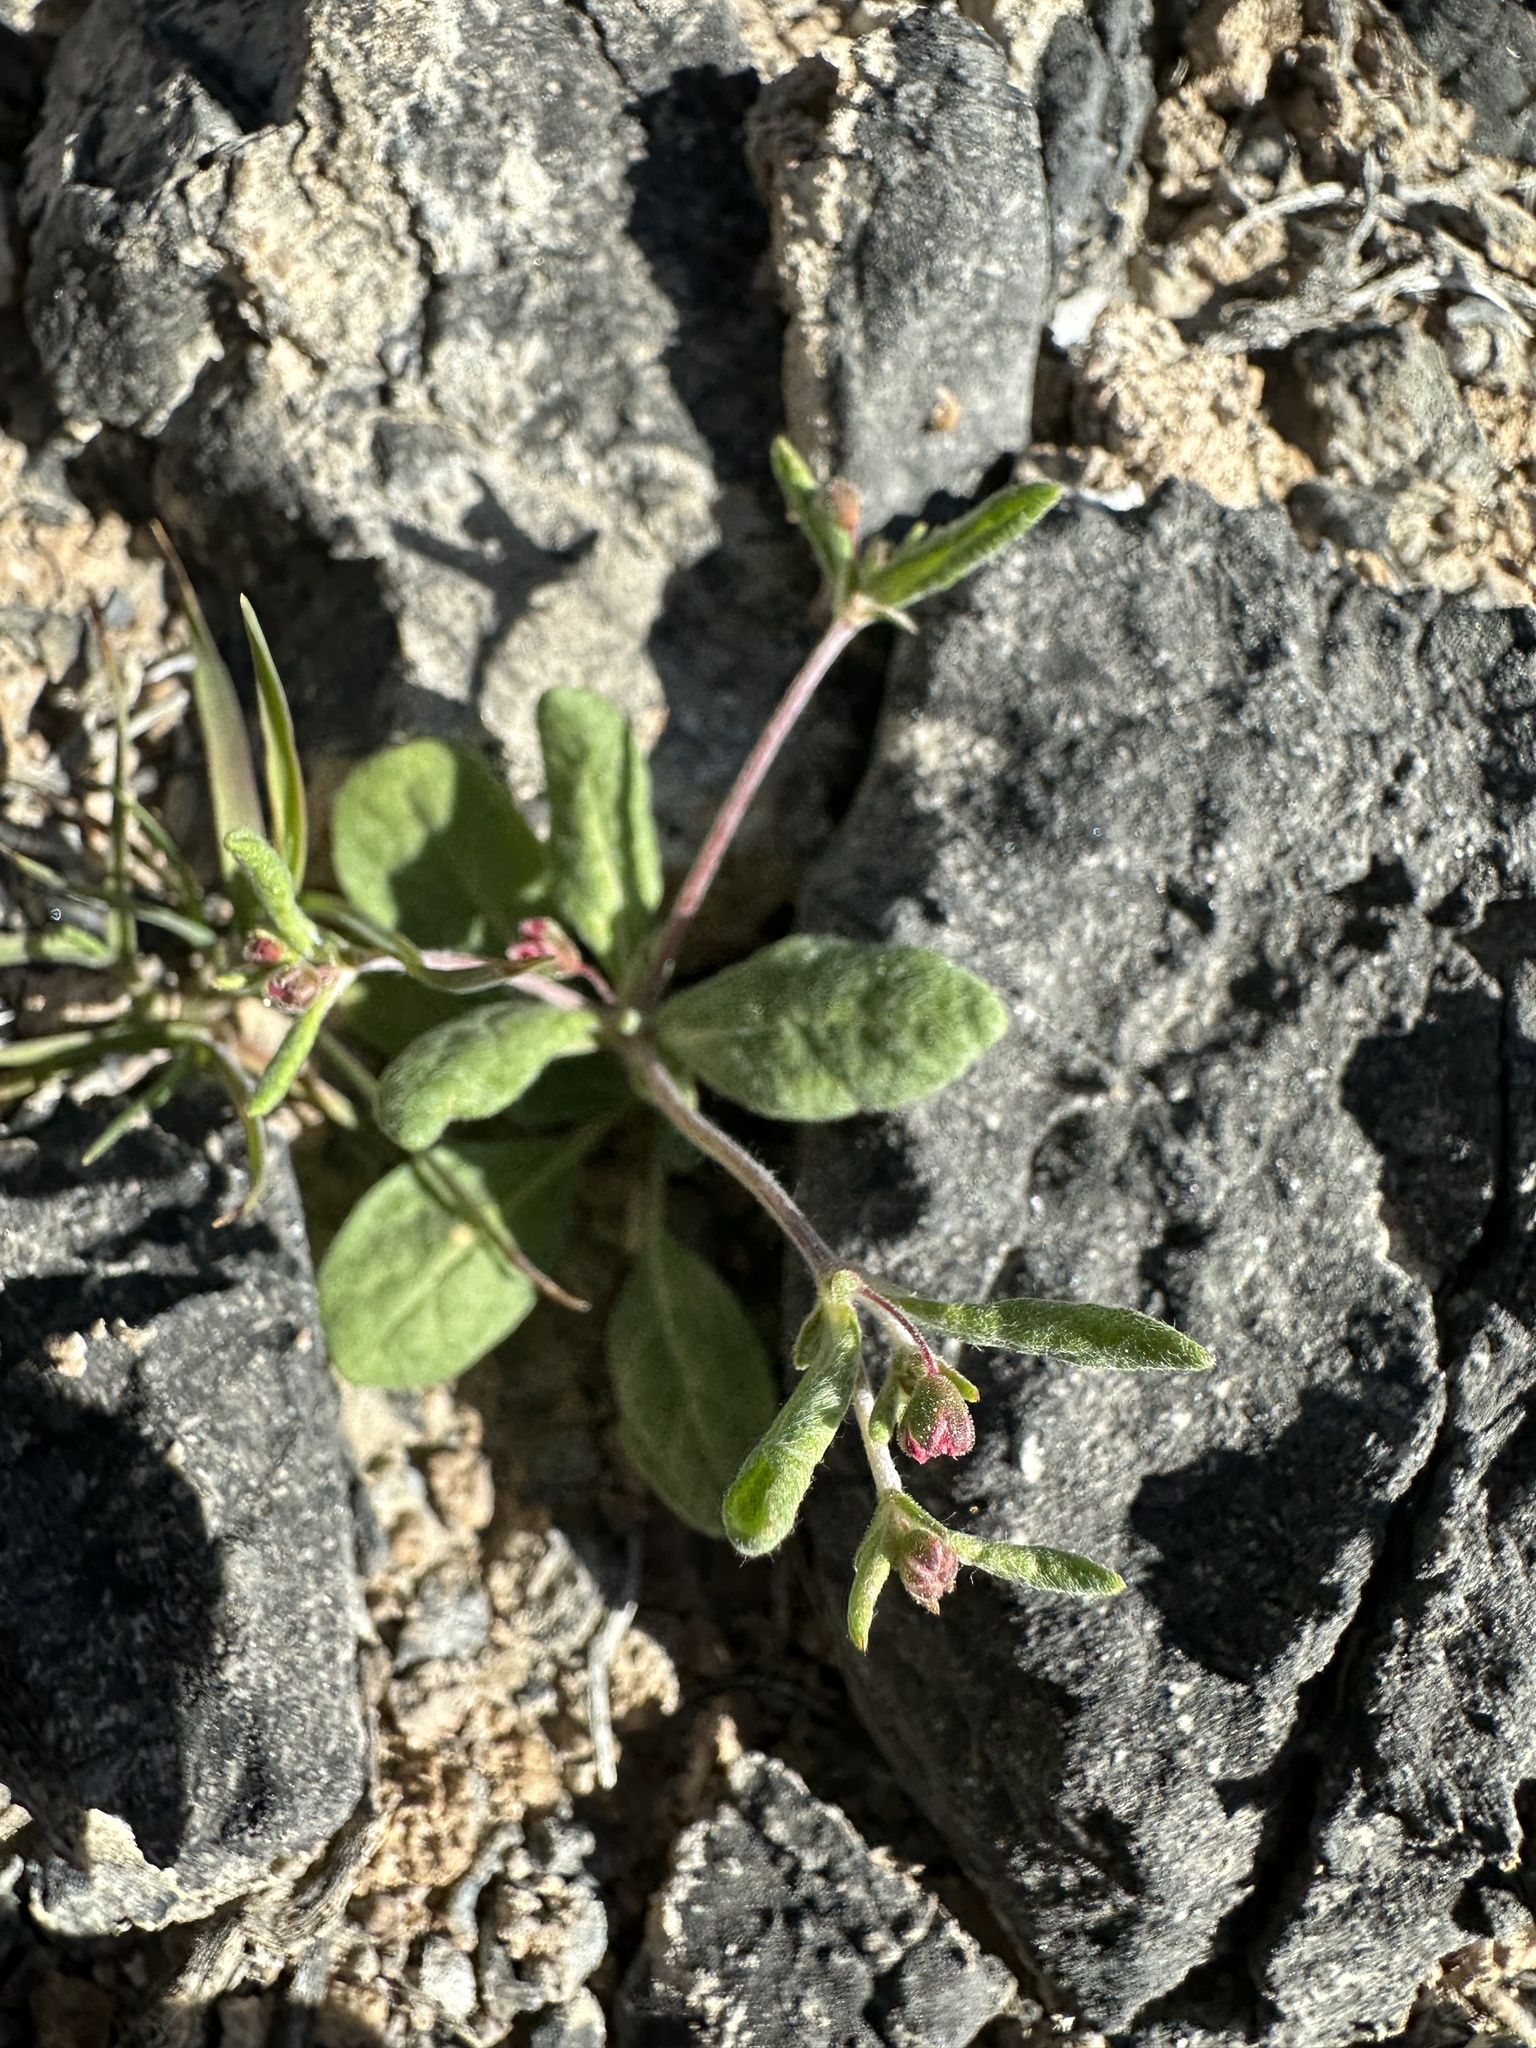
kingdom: Plantae
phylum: Tracheophyta
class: Magnoliopsida
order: Caryophyllales
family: Polygonaceae
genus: Eriogonum
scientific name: Eriogonum maculatum
